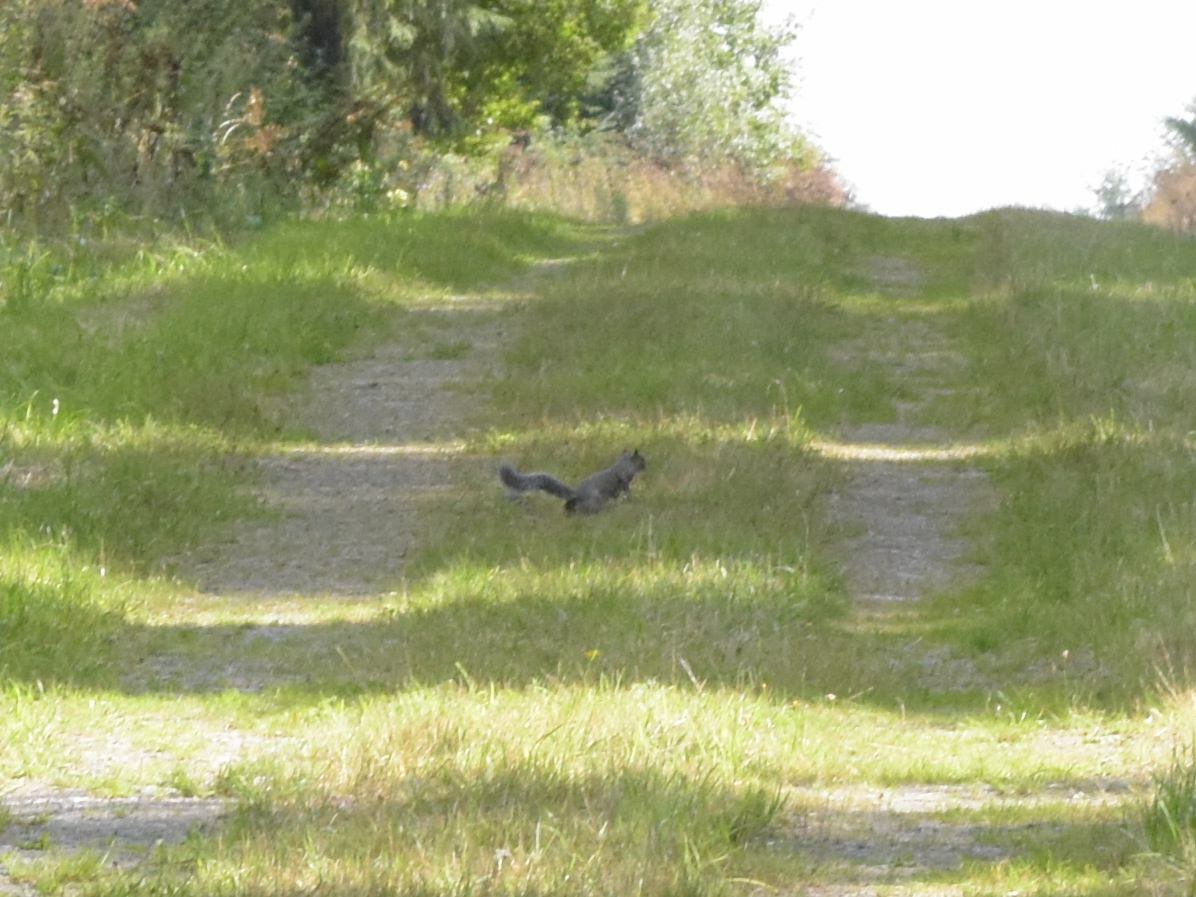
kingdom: Animalia
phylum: Chordata
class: Mammalia
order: Rodentia
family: Sciuridae
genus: Sciurus
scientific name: Sciurus carolinensis
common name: Eastern gray squirrel
